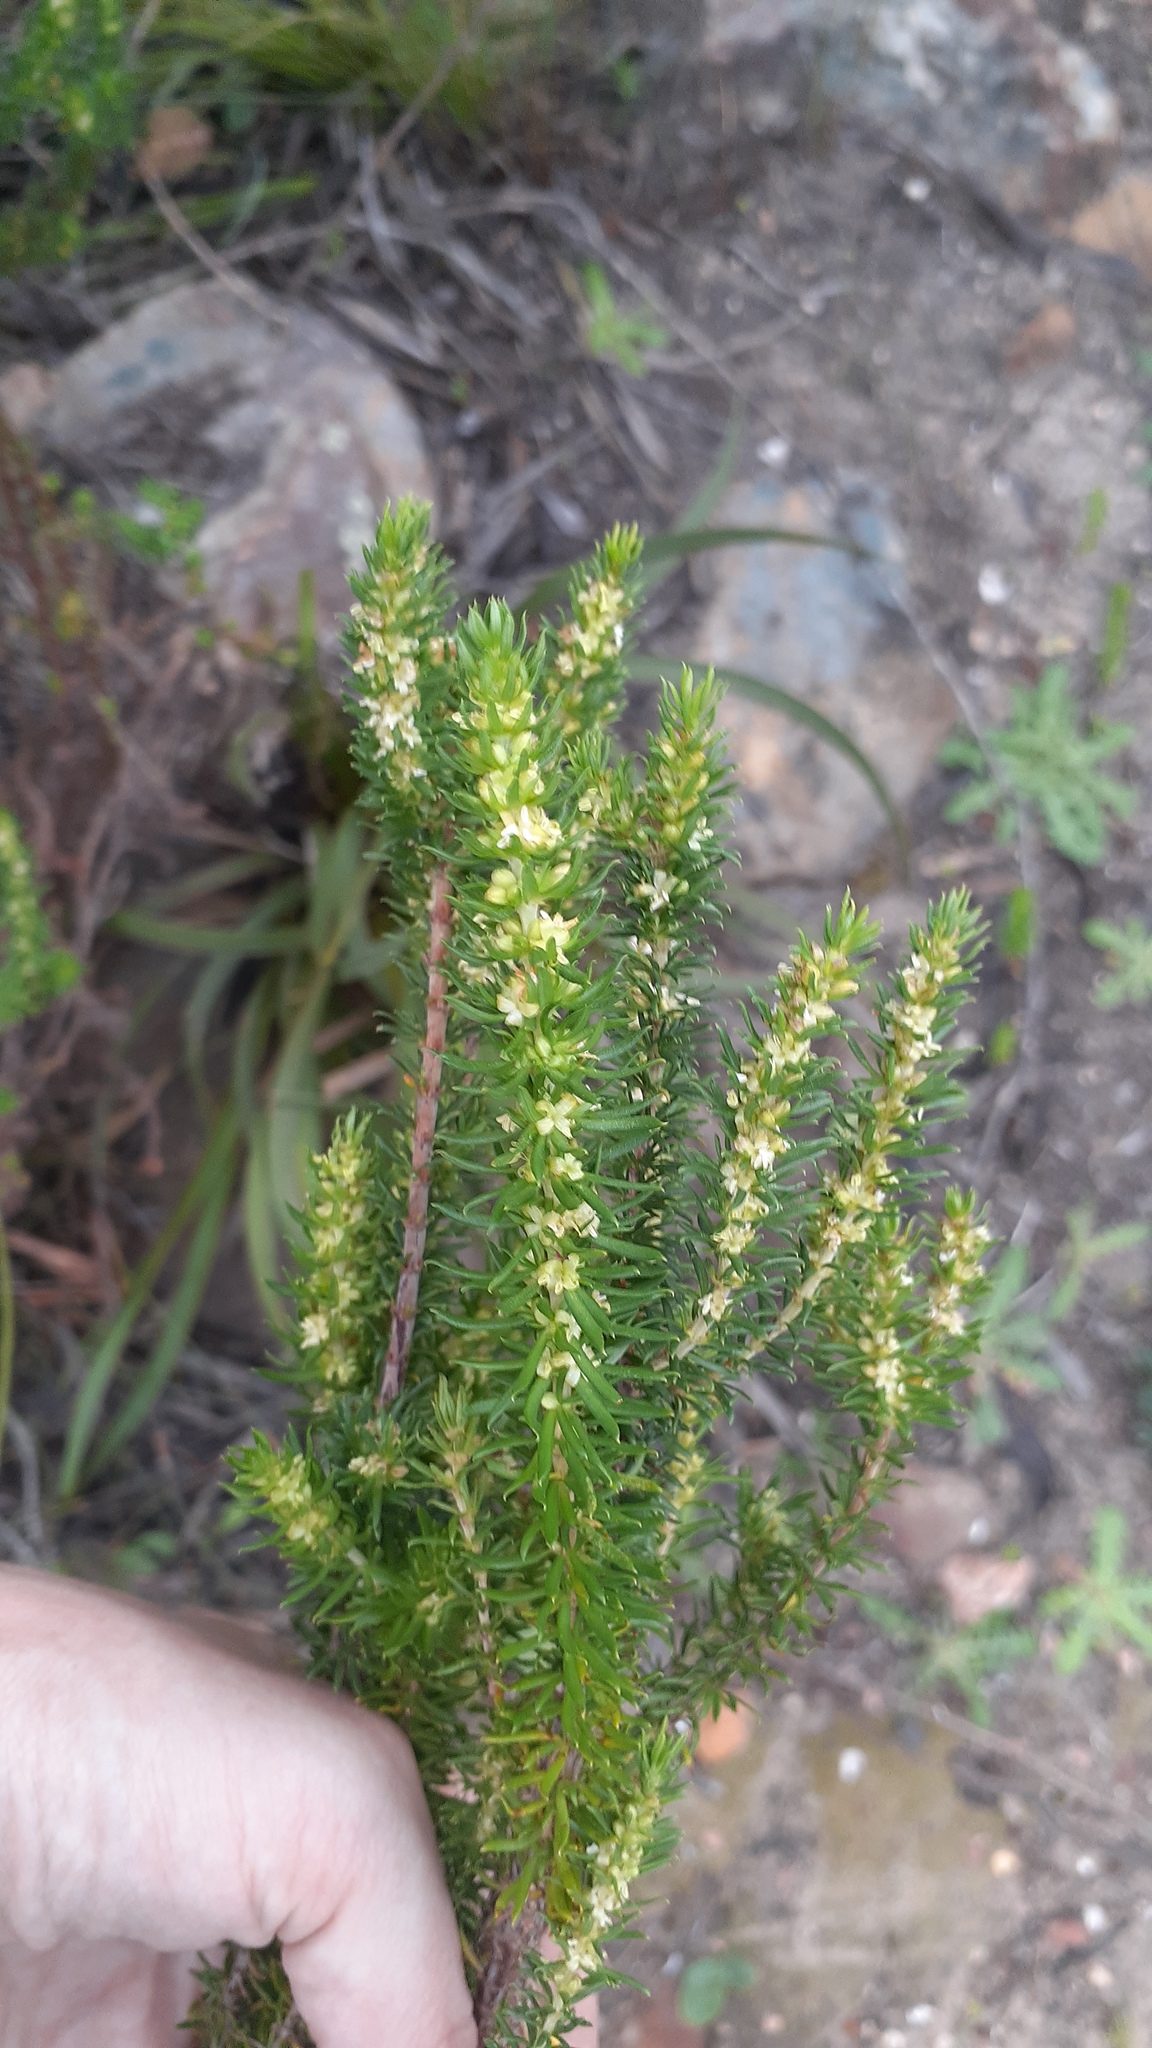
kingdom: Plantae
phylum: Tracheophyta
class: Magnoliopsida
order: Gentianales
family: Rubiaceae
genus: Anthospermum
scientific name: Anthospermum aethiopicum
